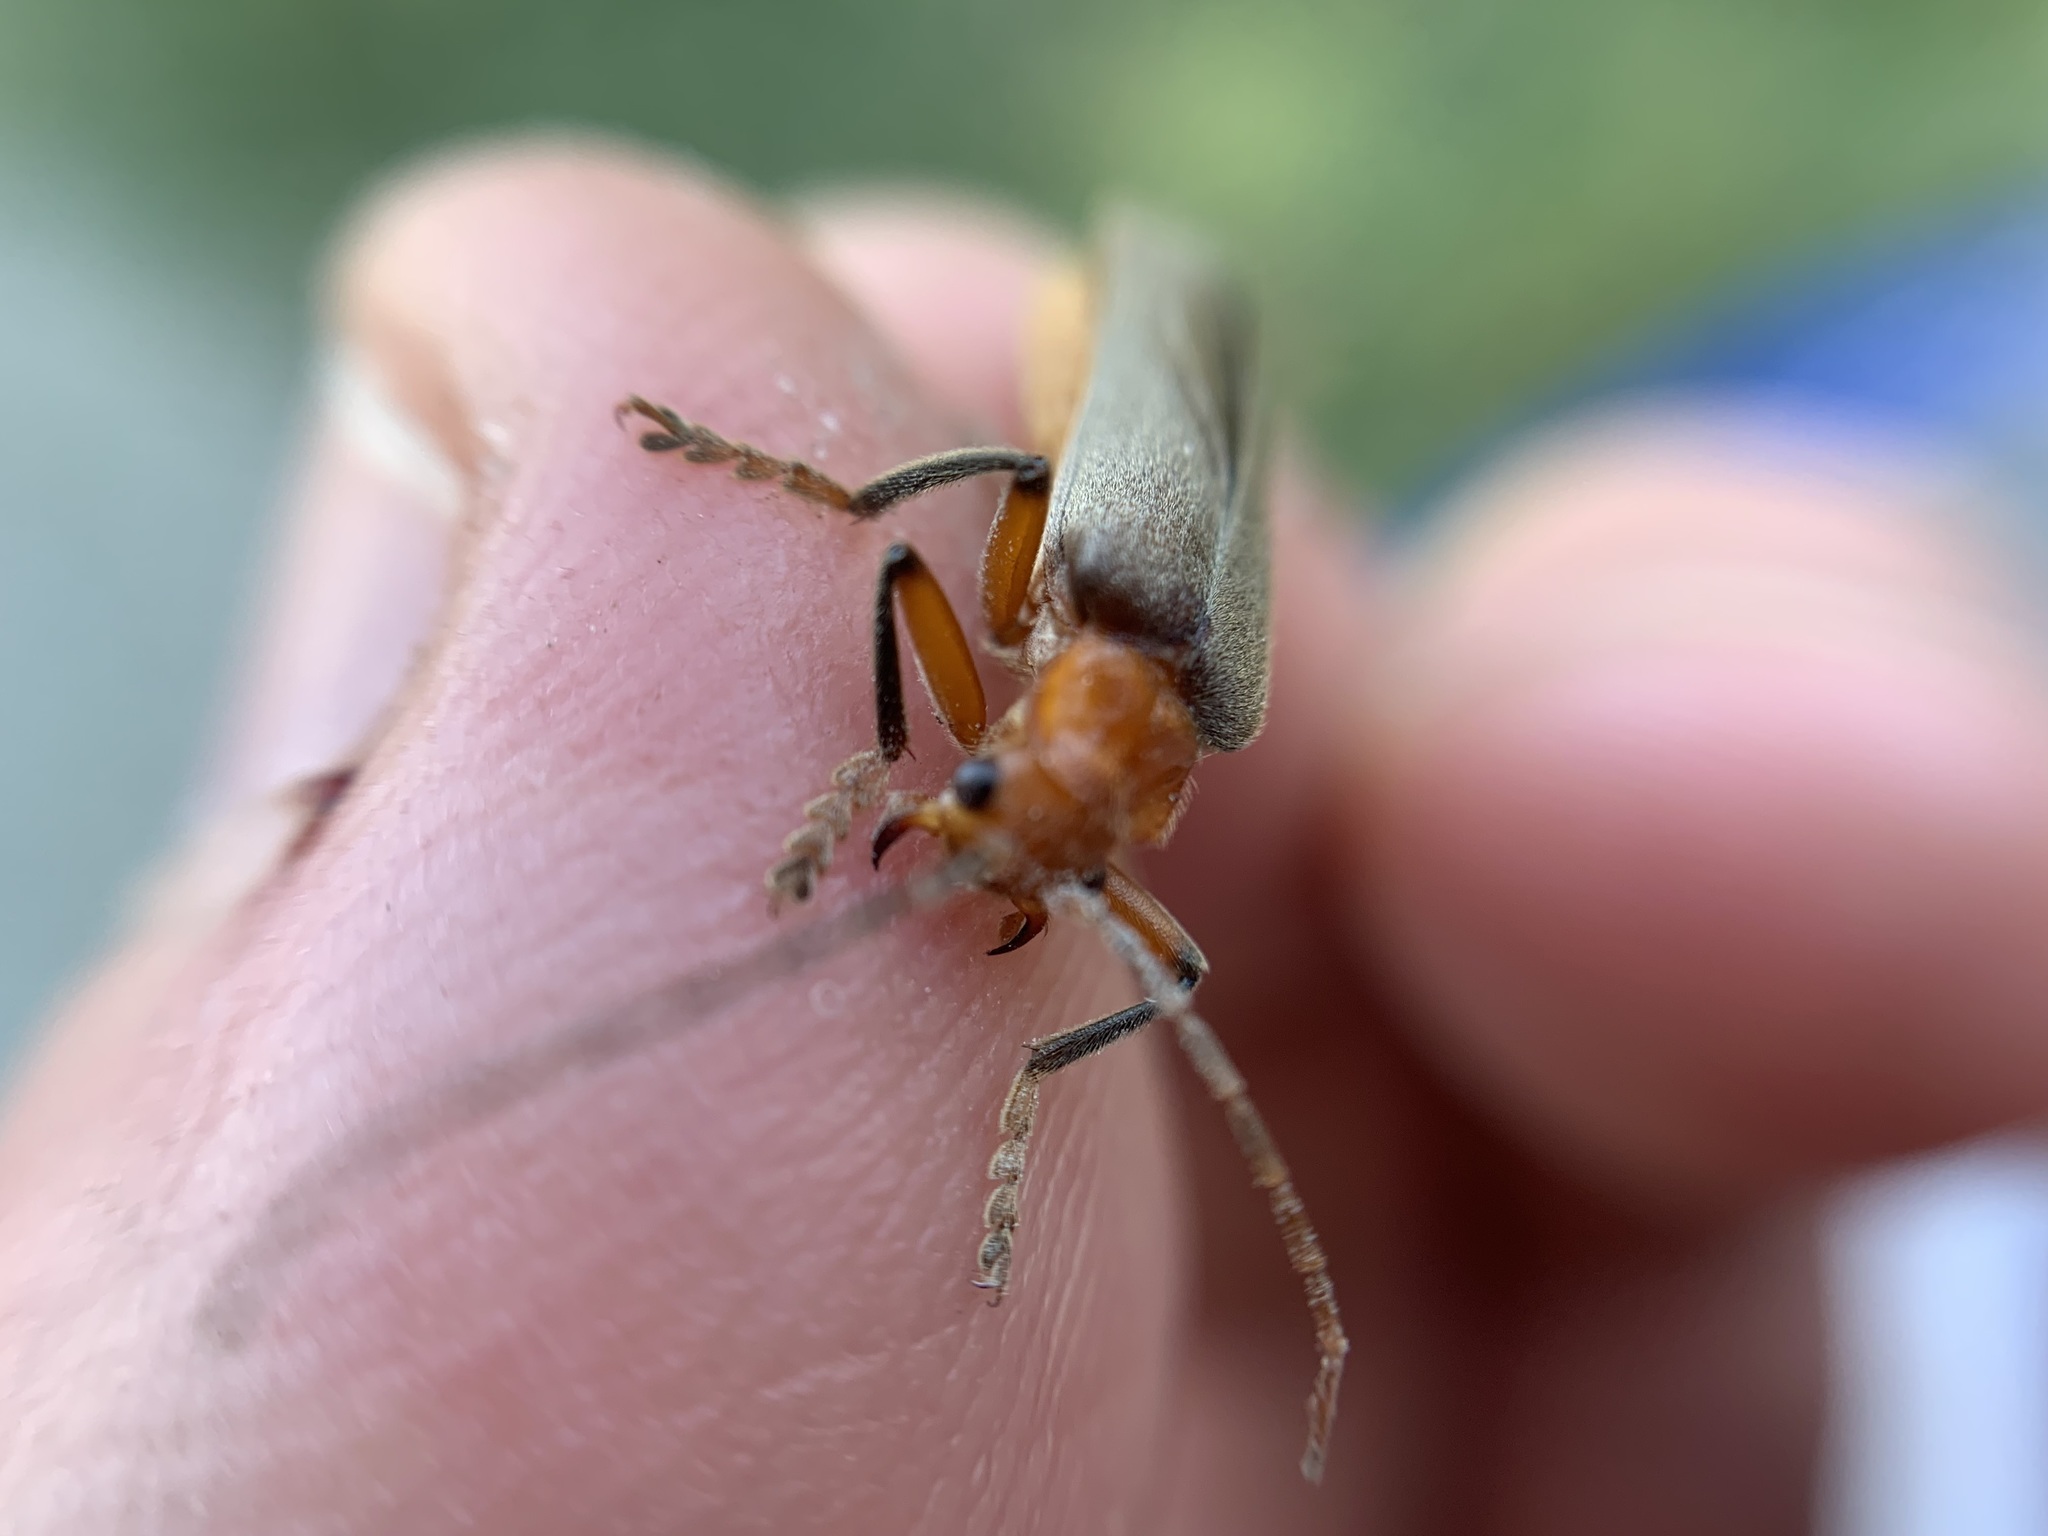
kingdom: Animalia
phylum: Arthropoda
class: Insecta
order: Coleoptera
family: Cantharidae
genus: Pacificanthia
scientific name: Pacificanthia consors
